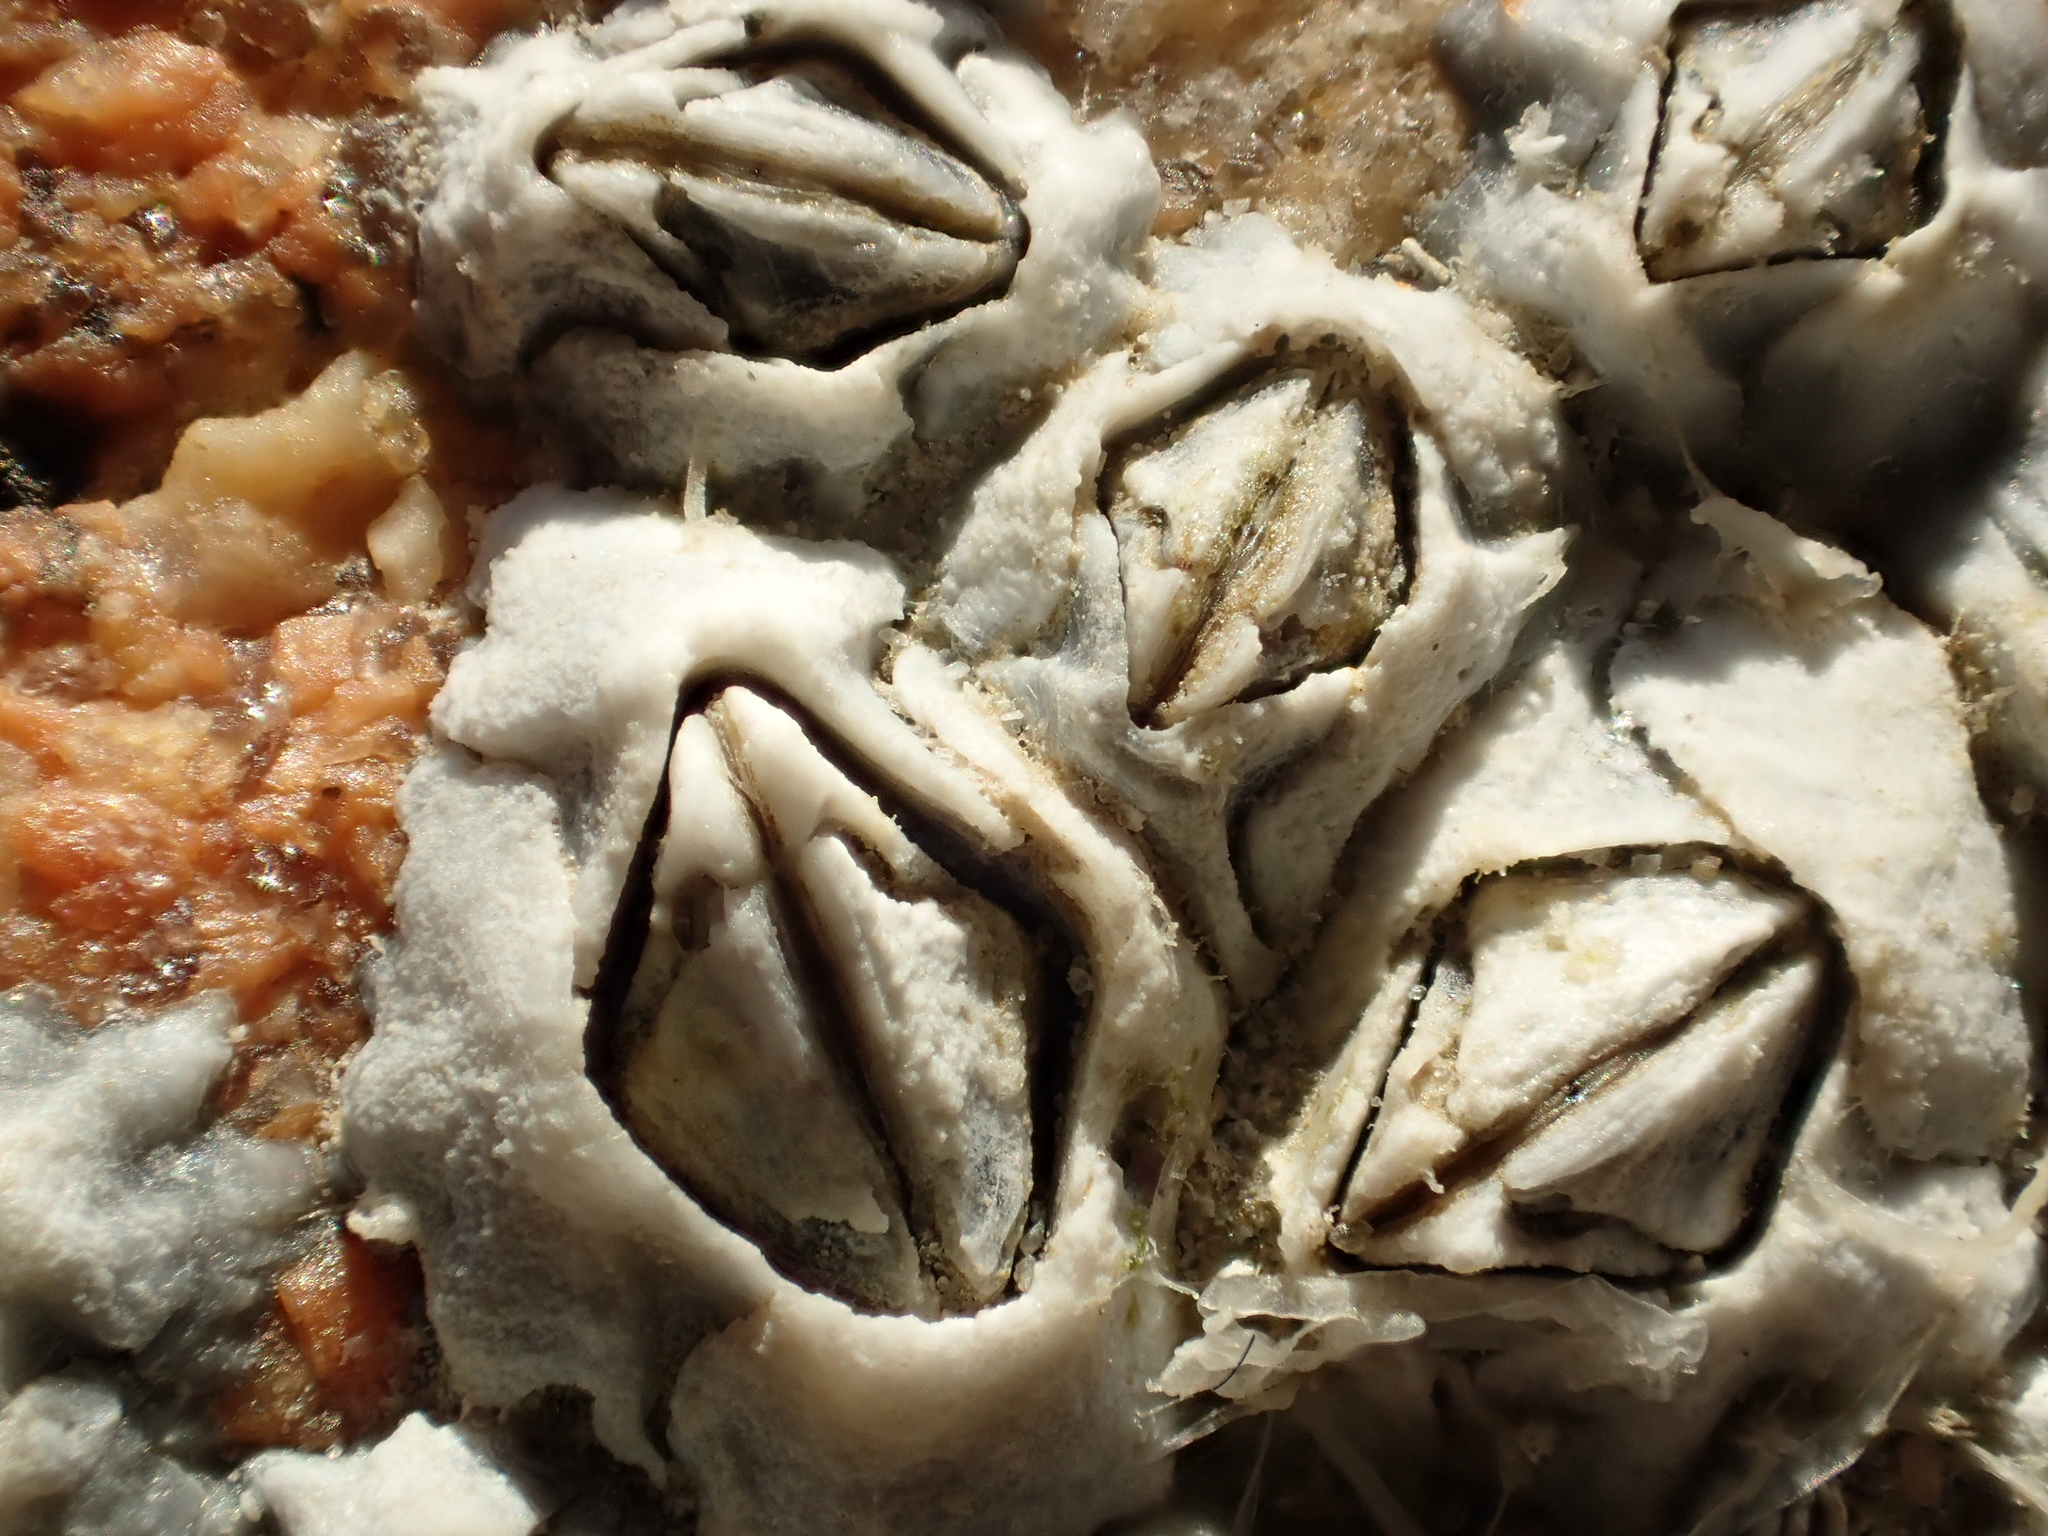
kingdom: Animalia
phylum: Arthropoda
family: Elminiidae
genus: Austrominius
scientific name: Austrominius modestus
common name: Australasian barnacle
